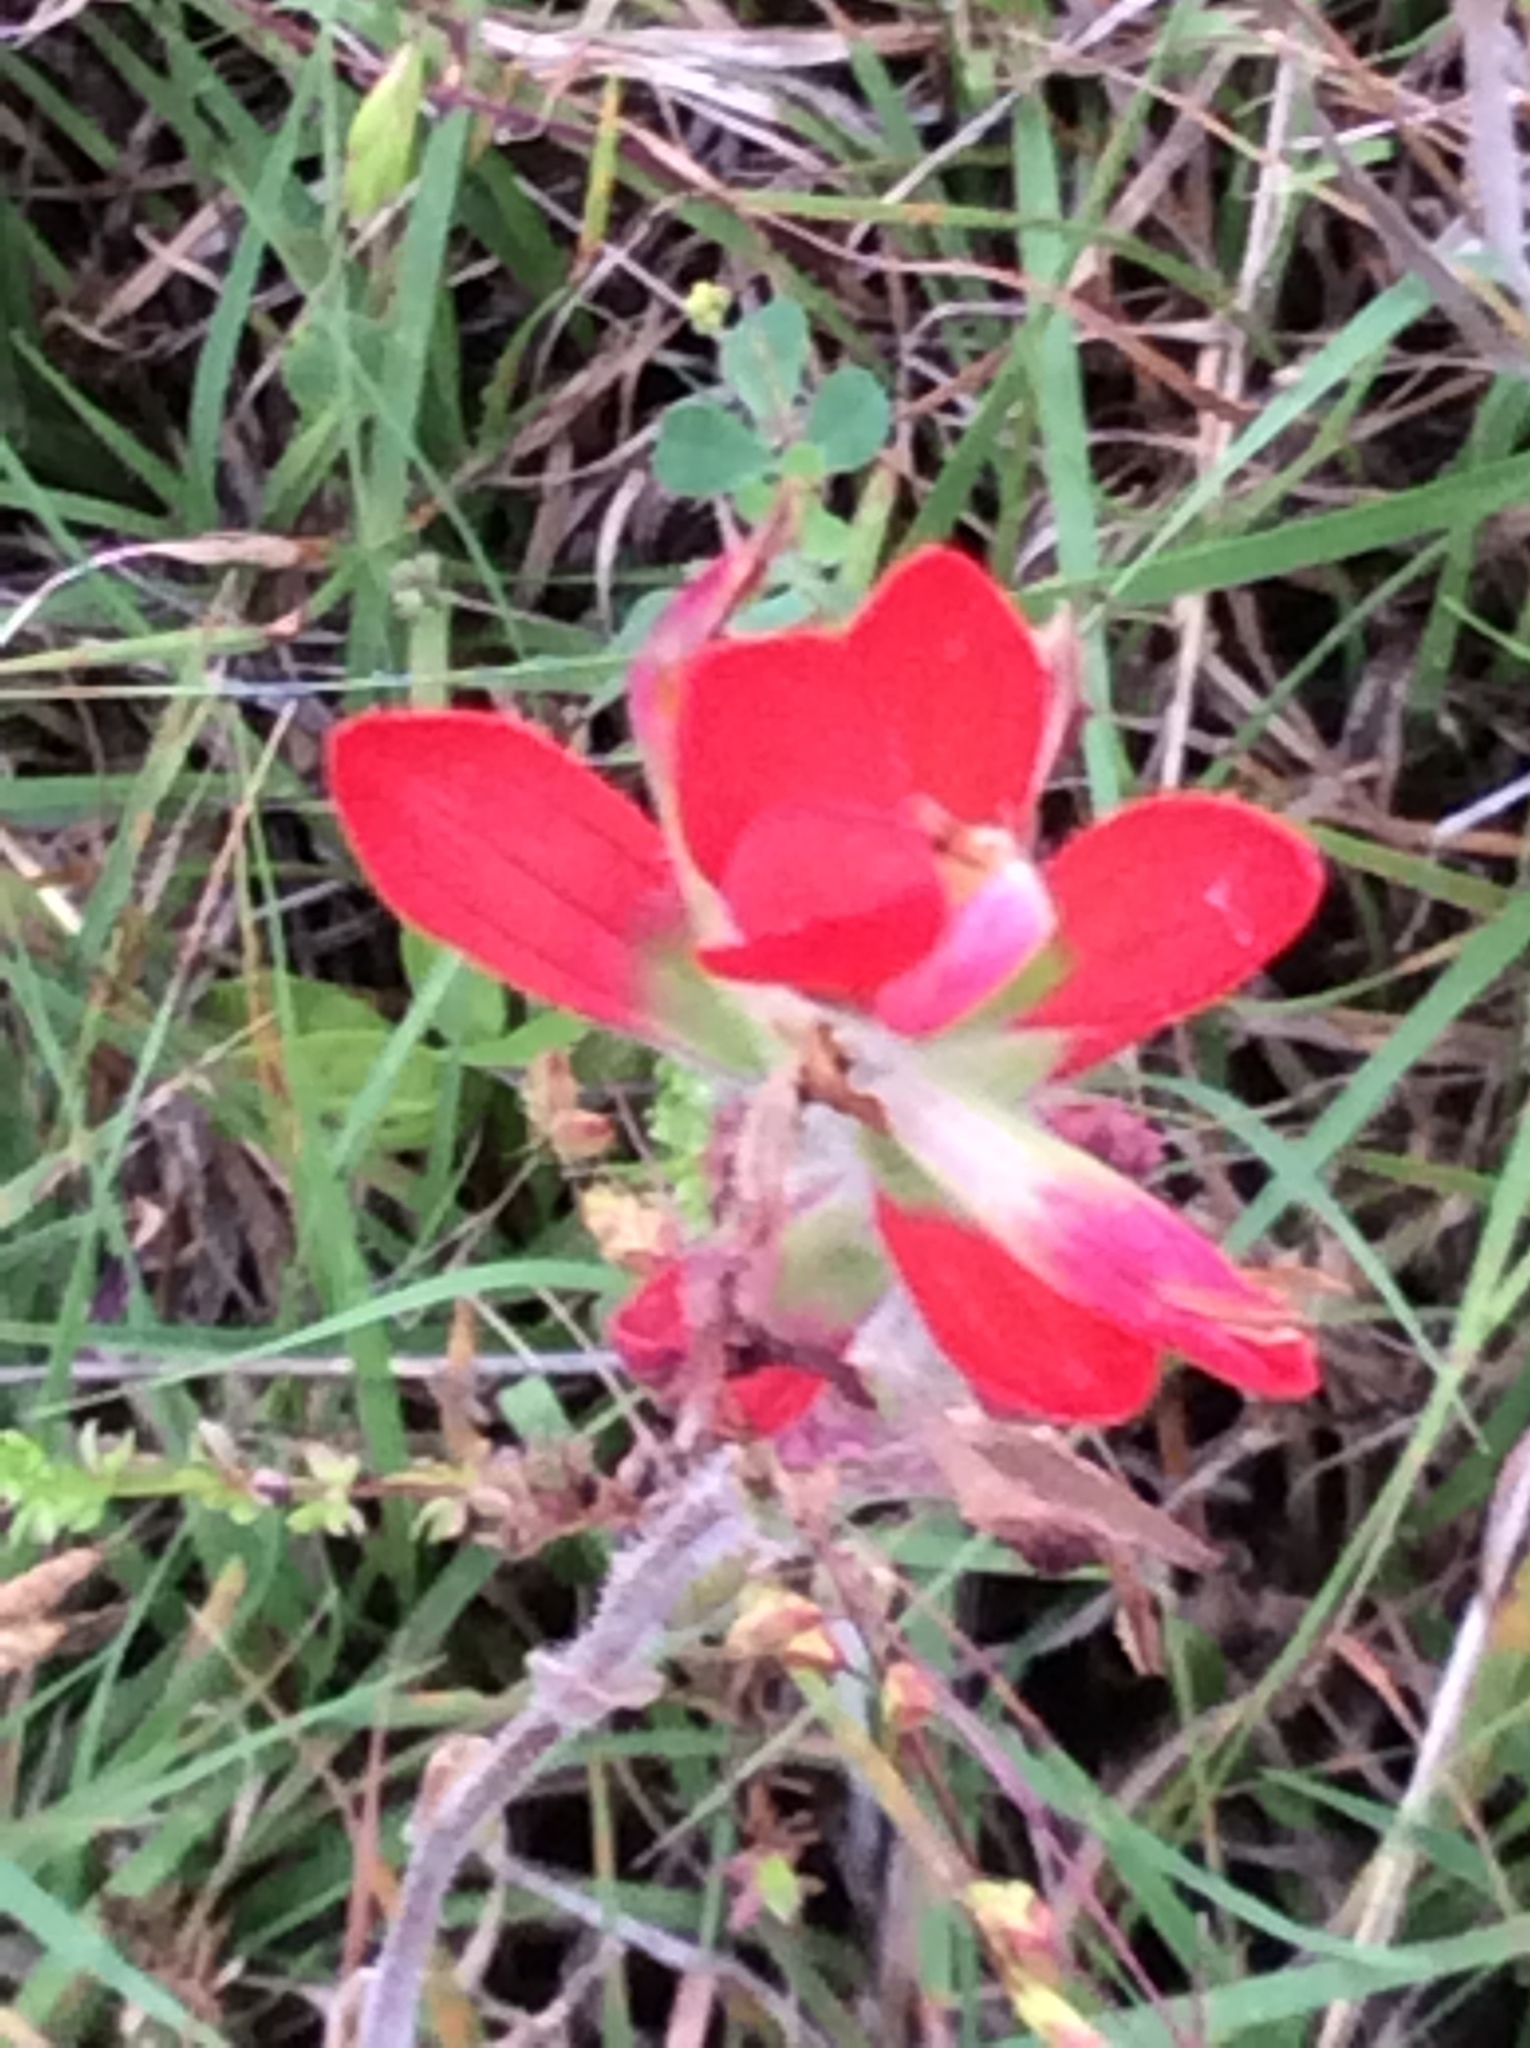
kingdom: Plantae
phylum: Tracheophyta
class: Magnoliopsida
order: Lamiales
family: Orobanchaceae
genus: Castilleja
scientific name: Castilleja indivisa
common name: Texas paintbrush
